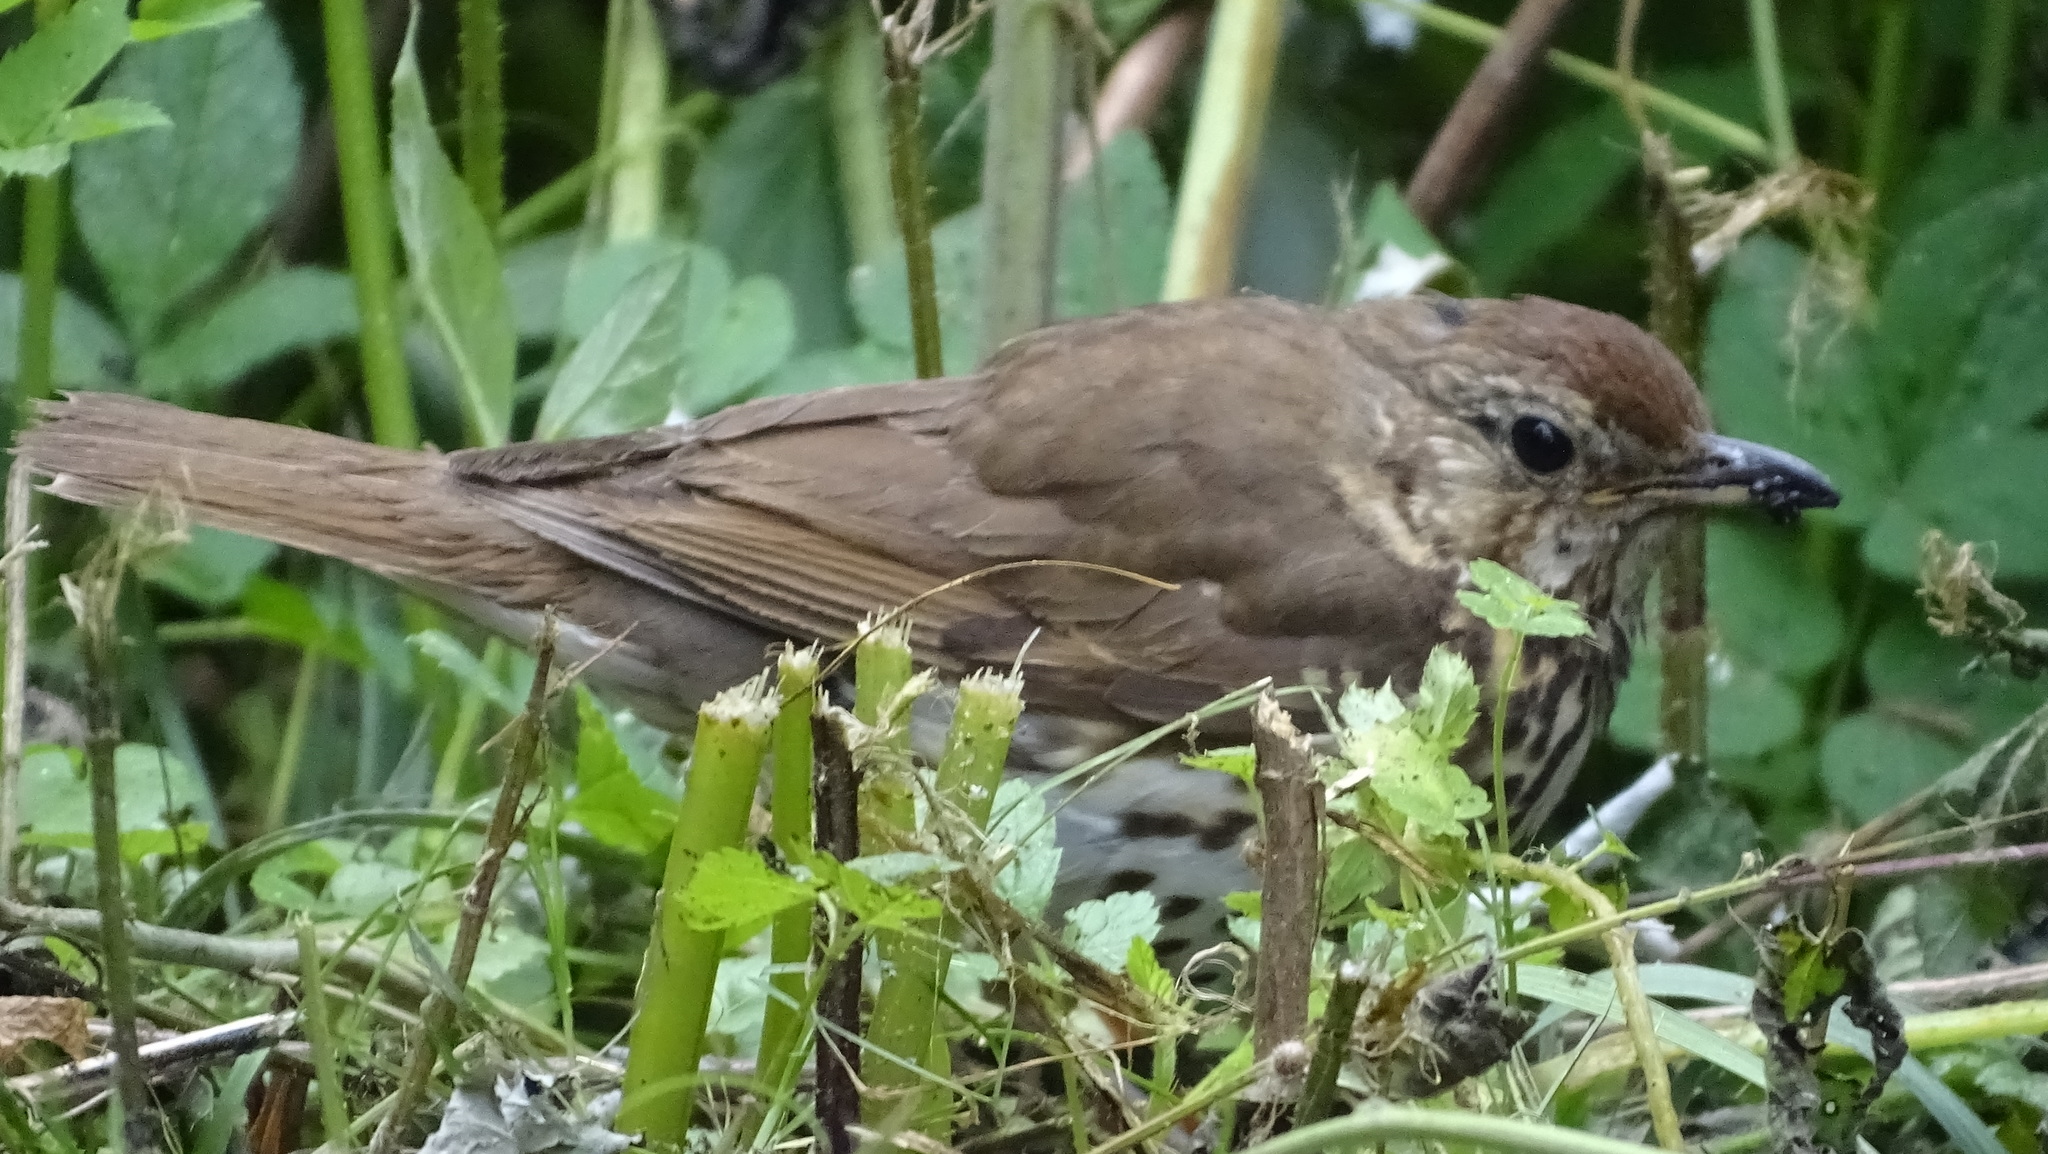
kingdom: Animalia
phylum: Chordata
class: Aves
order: Passeriformes
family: Turdidae
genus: Turdus
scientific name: Turdus philomelos
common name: Song thrush
